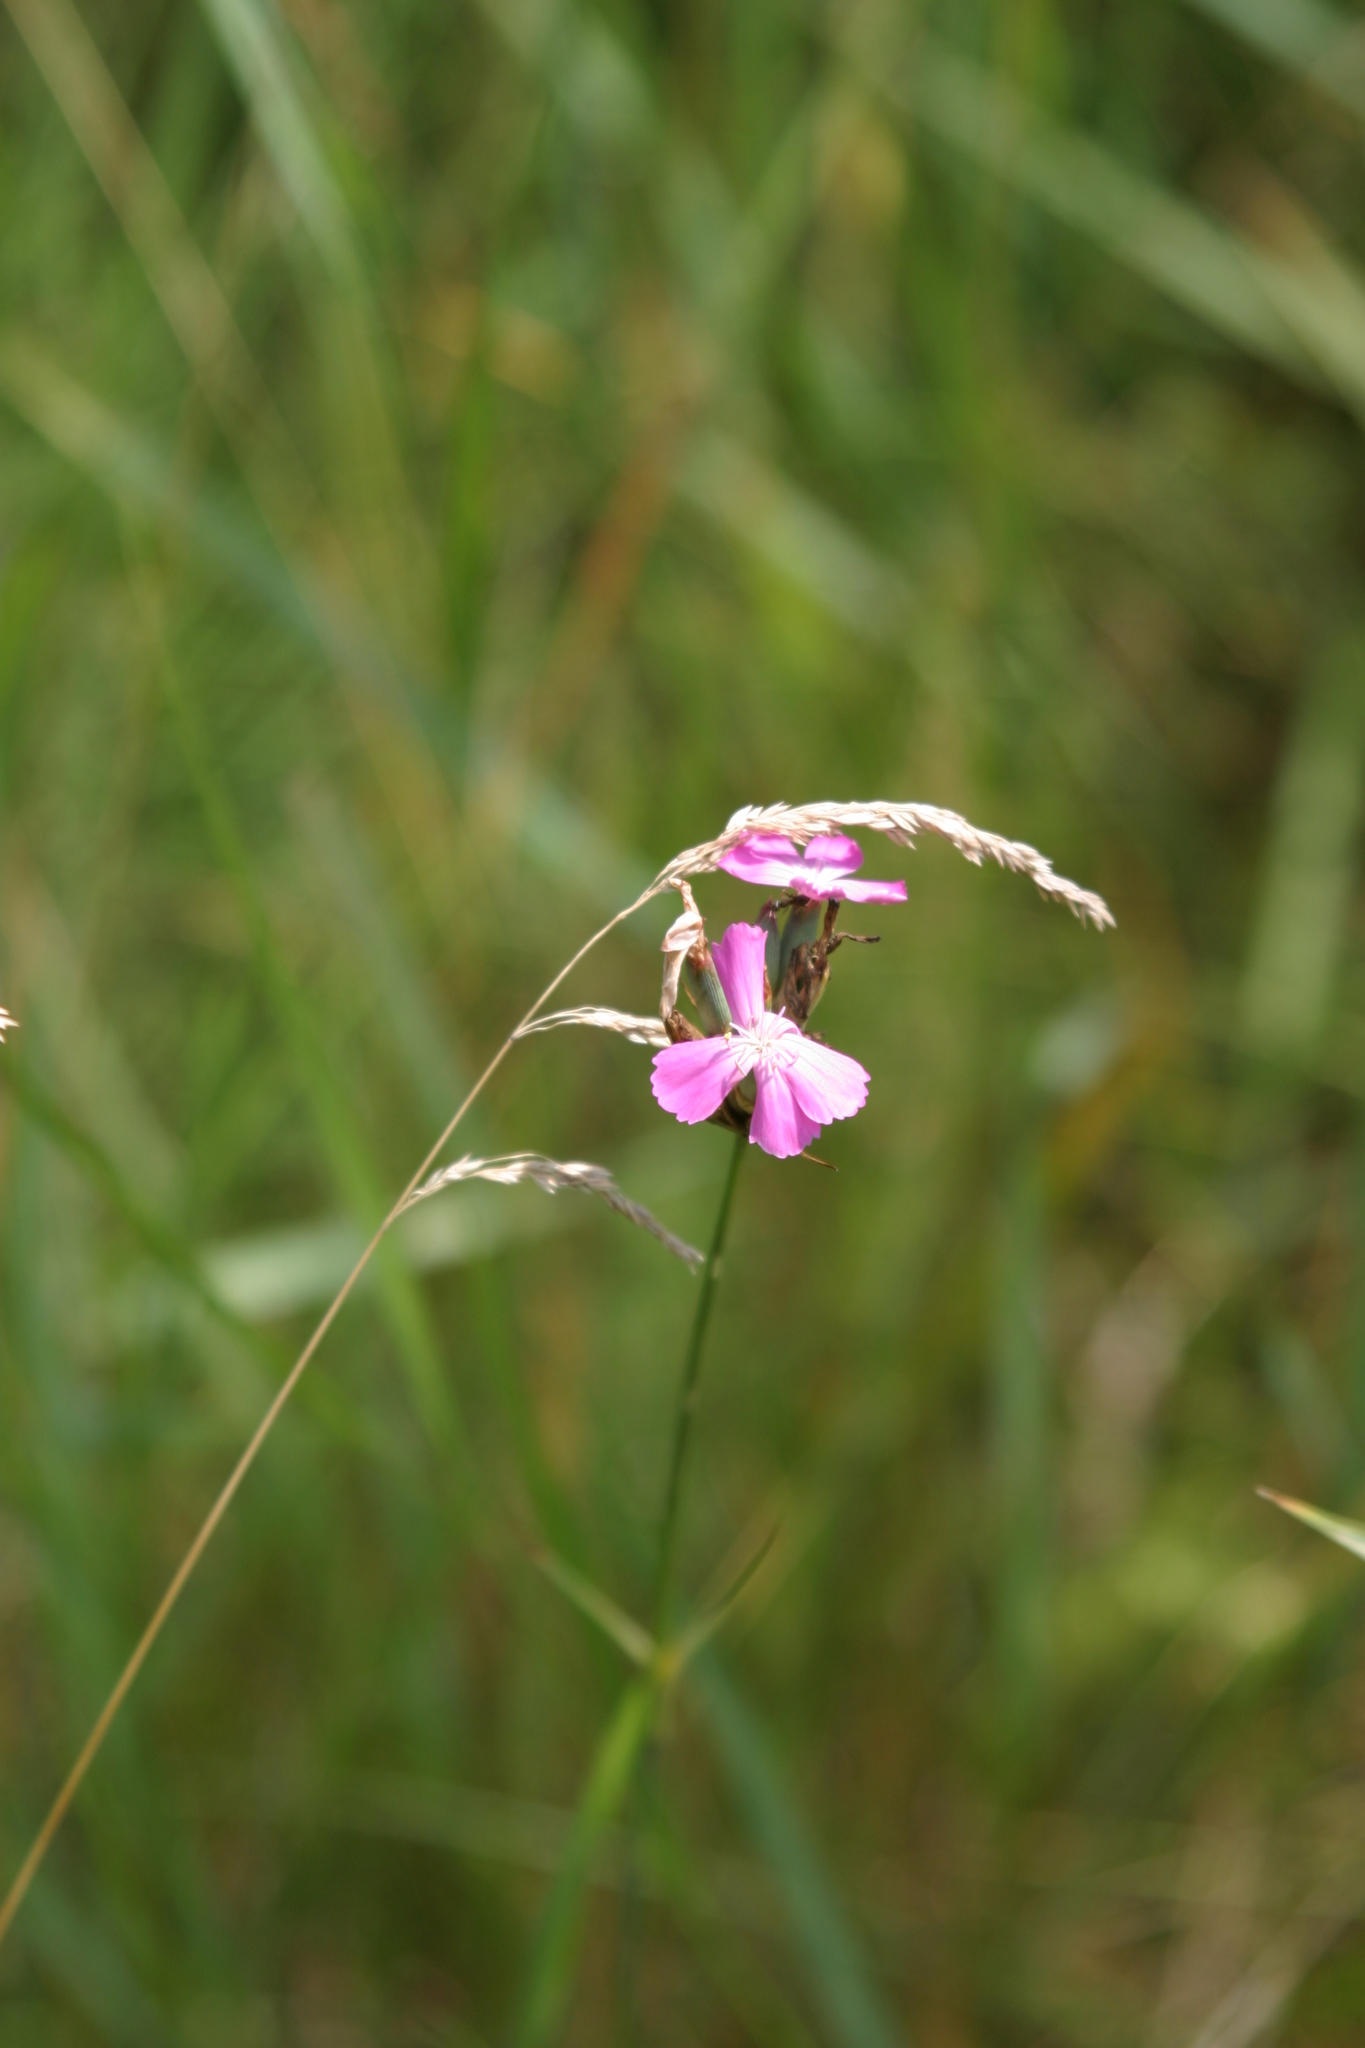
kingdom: Plantae
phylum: Tracheophyta
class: Magnoliopsida
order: Caryophyllales
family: Caryophyllaceae
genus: Dianthus
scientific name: Dianthus borbasii
